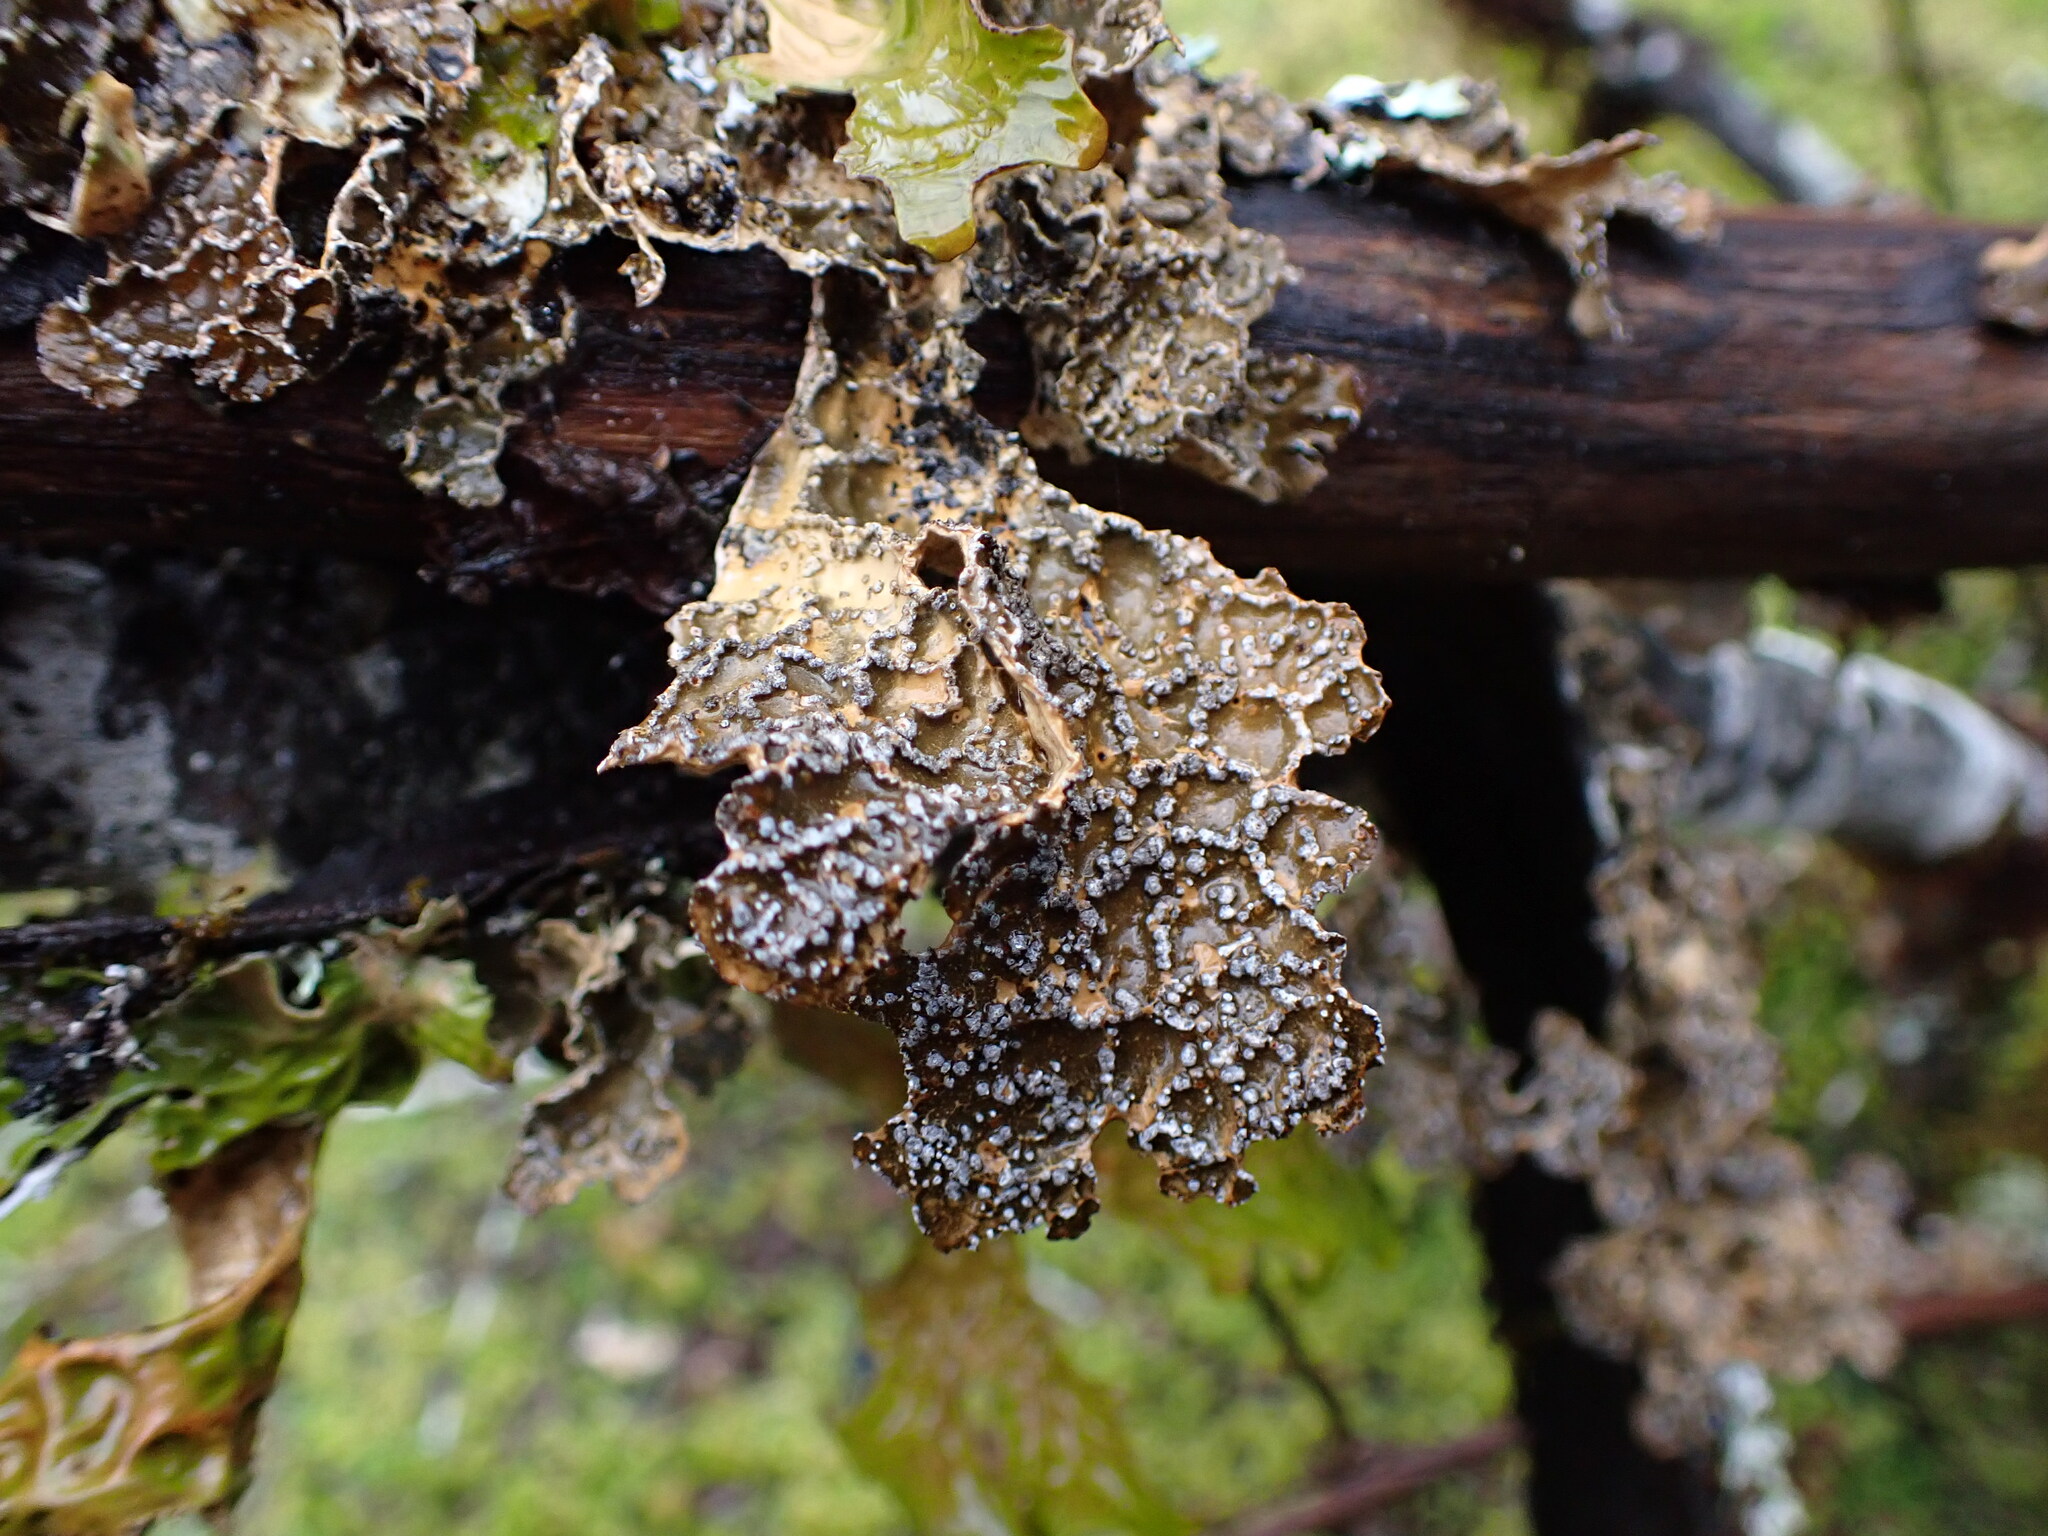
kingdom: Fungi
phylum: Ascomycota
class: Lecanoromycetes
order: Peltigerales
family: Lobariaceae
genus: Lobaria
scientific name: Lobaria anomala
